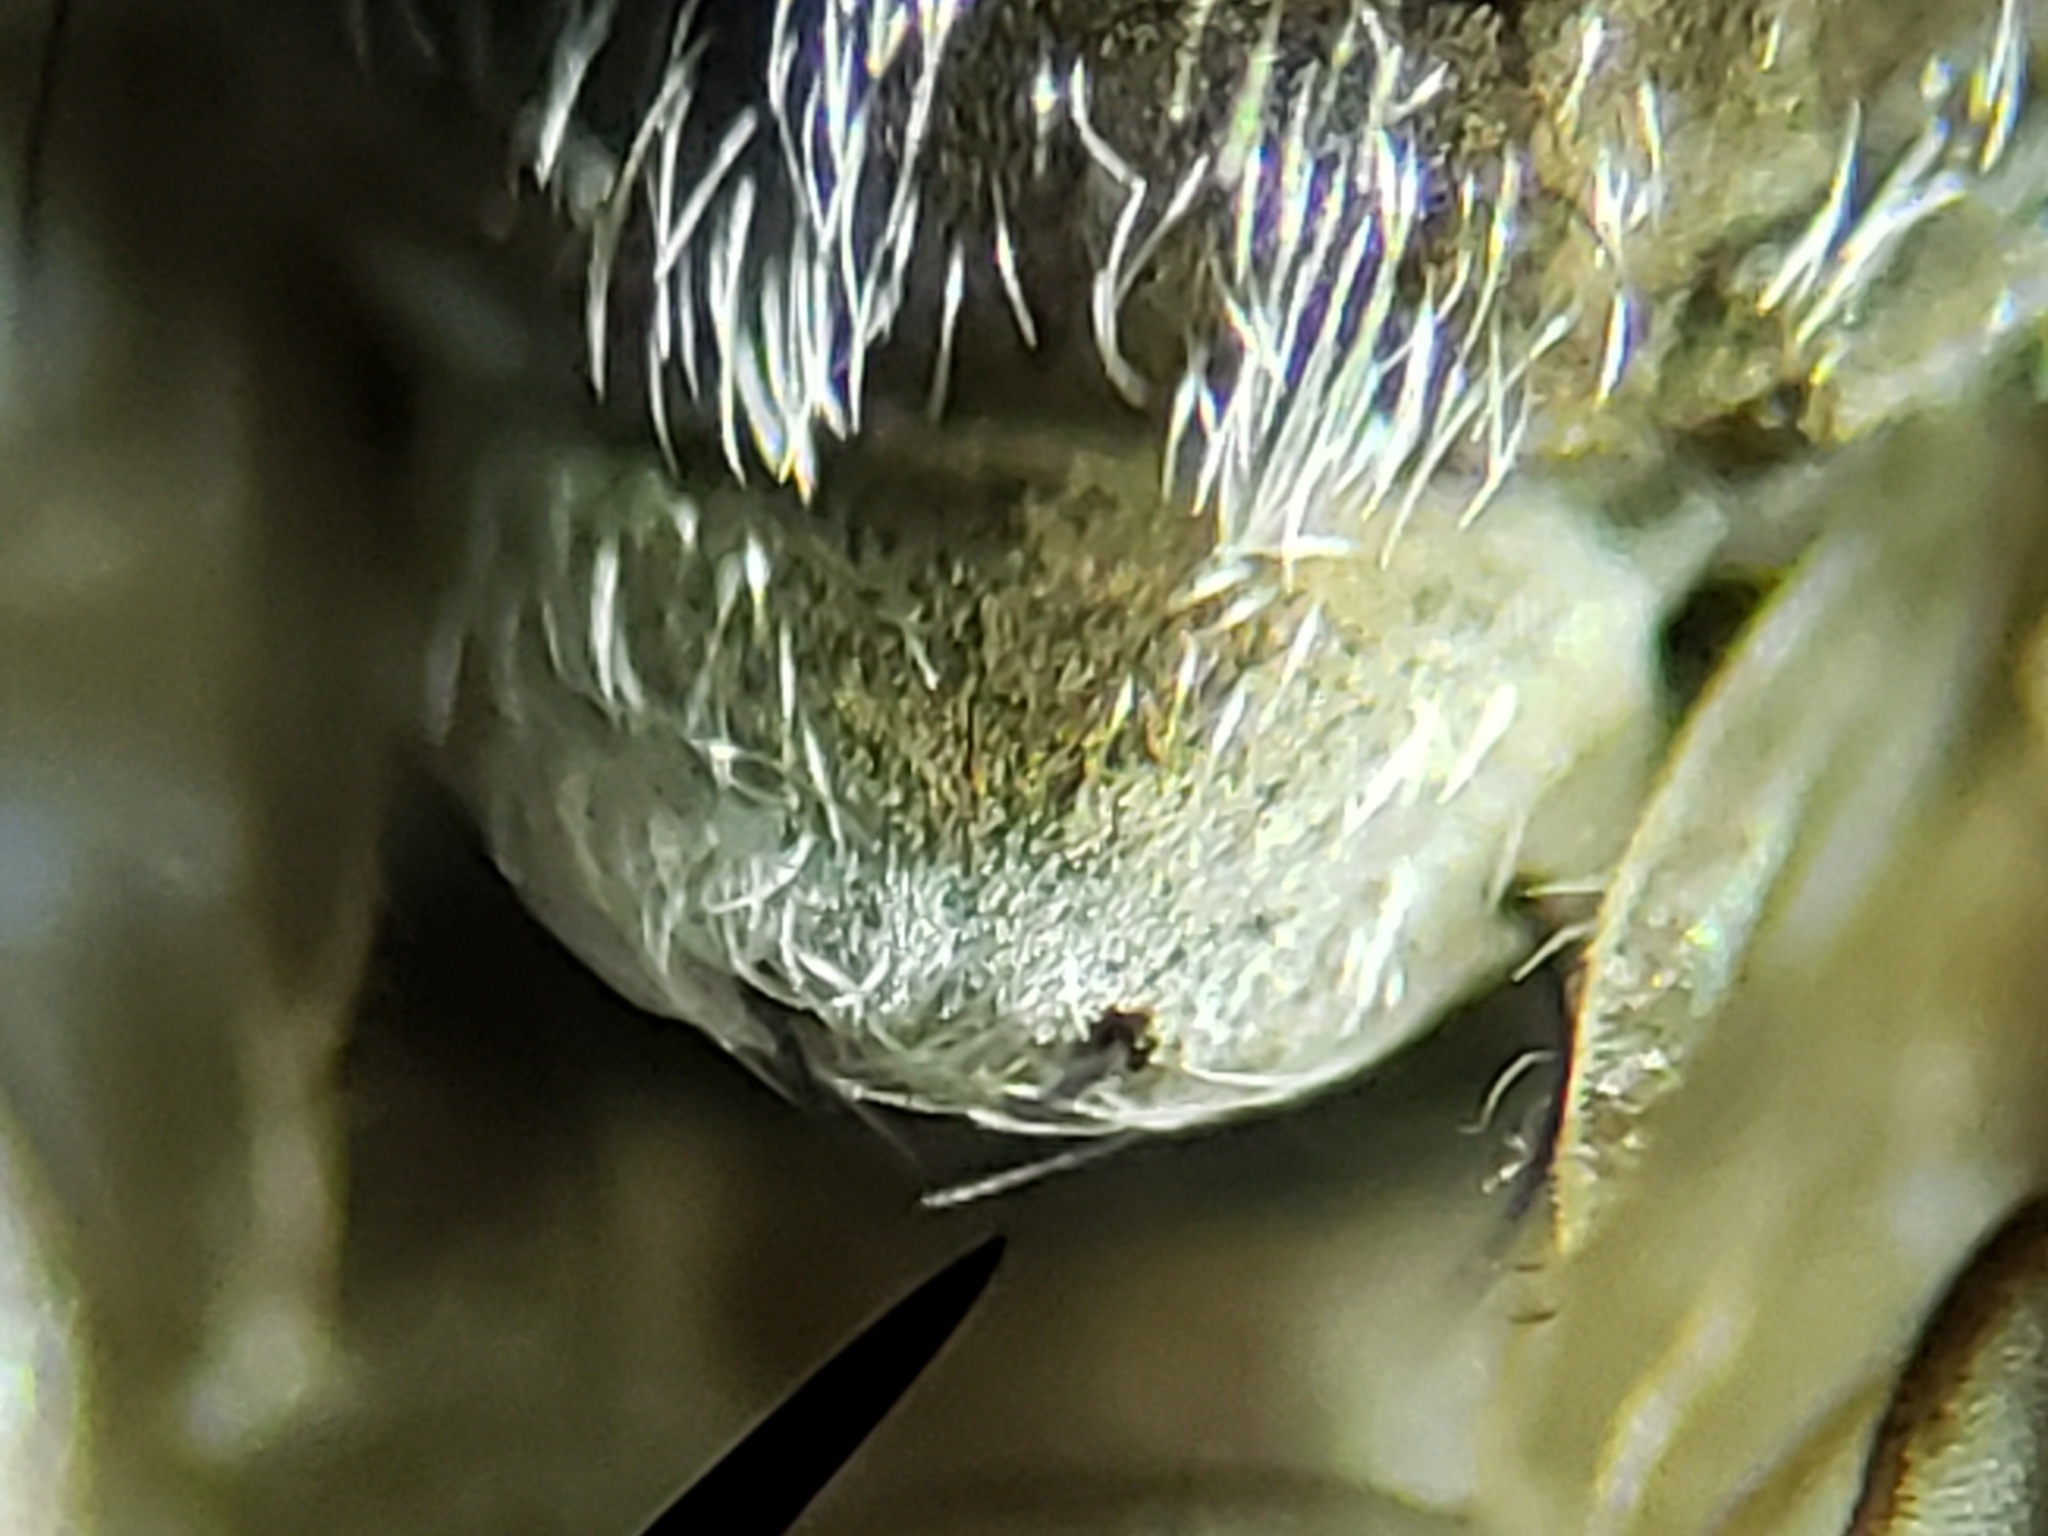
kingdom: Animalia
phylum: Arthropoda
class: Insecta
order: Diptera
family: Therevidae
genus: Litolinga
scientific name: Litolinga tergisa
